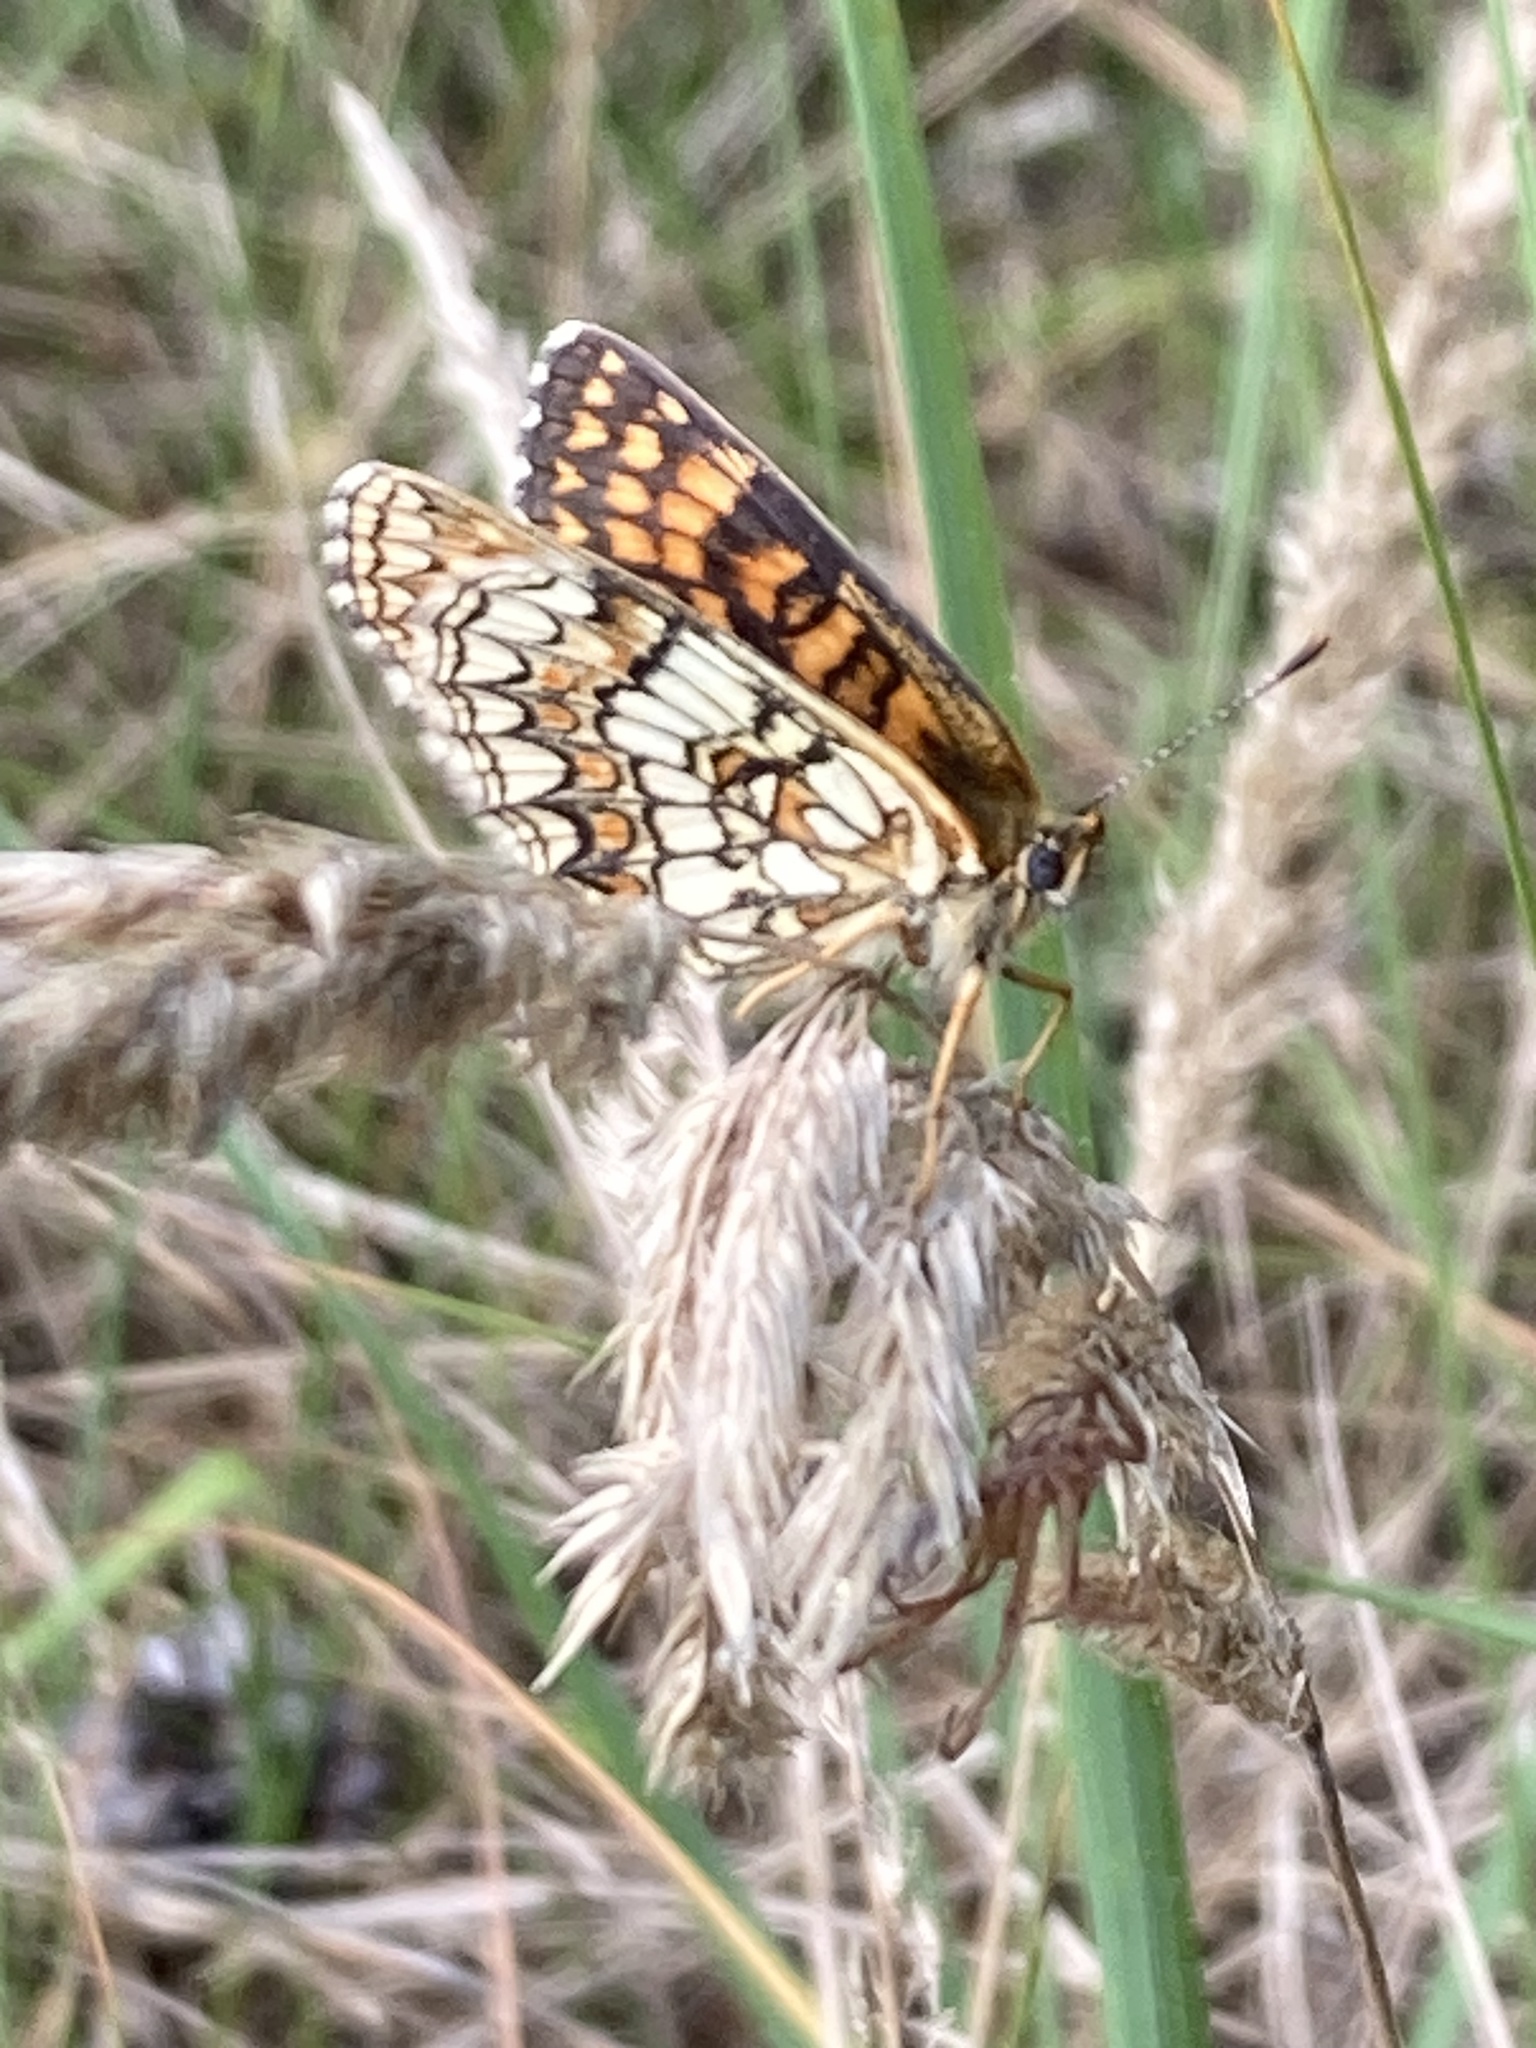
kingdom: Animalia
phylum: Arthropoda
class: Insecta
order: Lepidoptera
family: Nymphalidae
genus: Melitaea
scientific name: Melitaea athalia
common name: Heath fritillary
